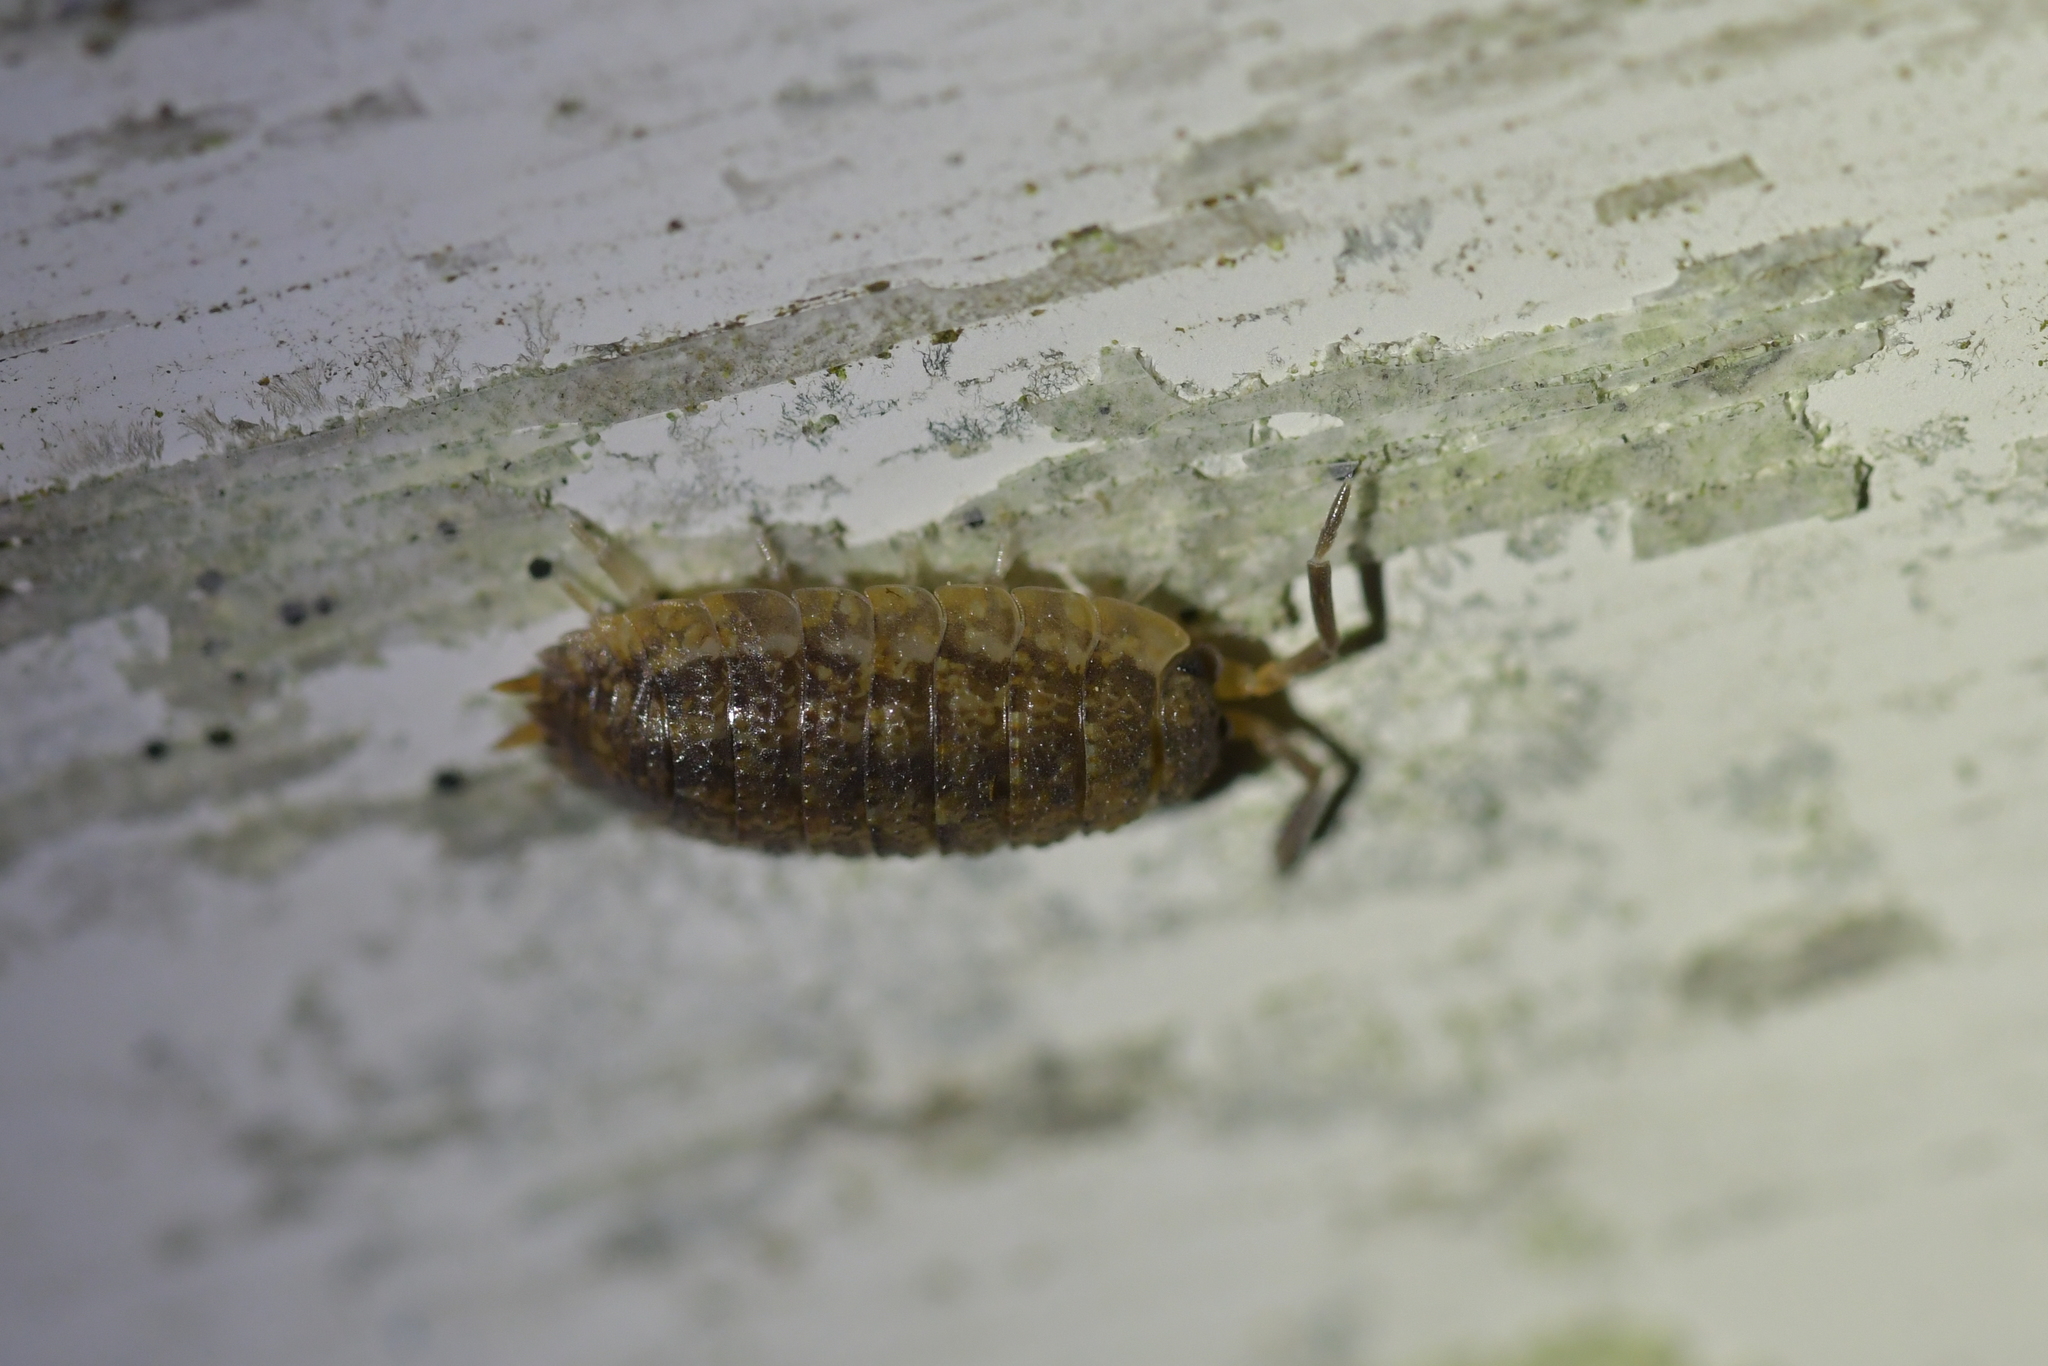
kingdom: Animalia
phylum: Arthropoda
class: Malacostraca
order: Isopoda
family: Porcellionidae
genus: Porcellio
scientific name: Porcellio scaber
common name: Common rough woodlouse
